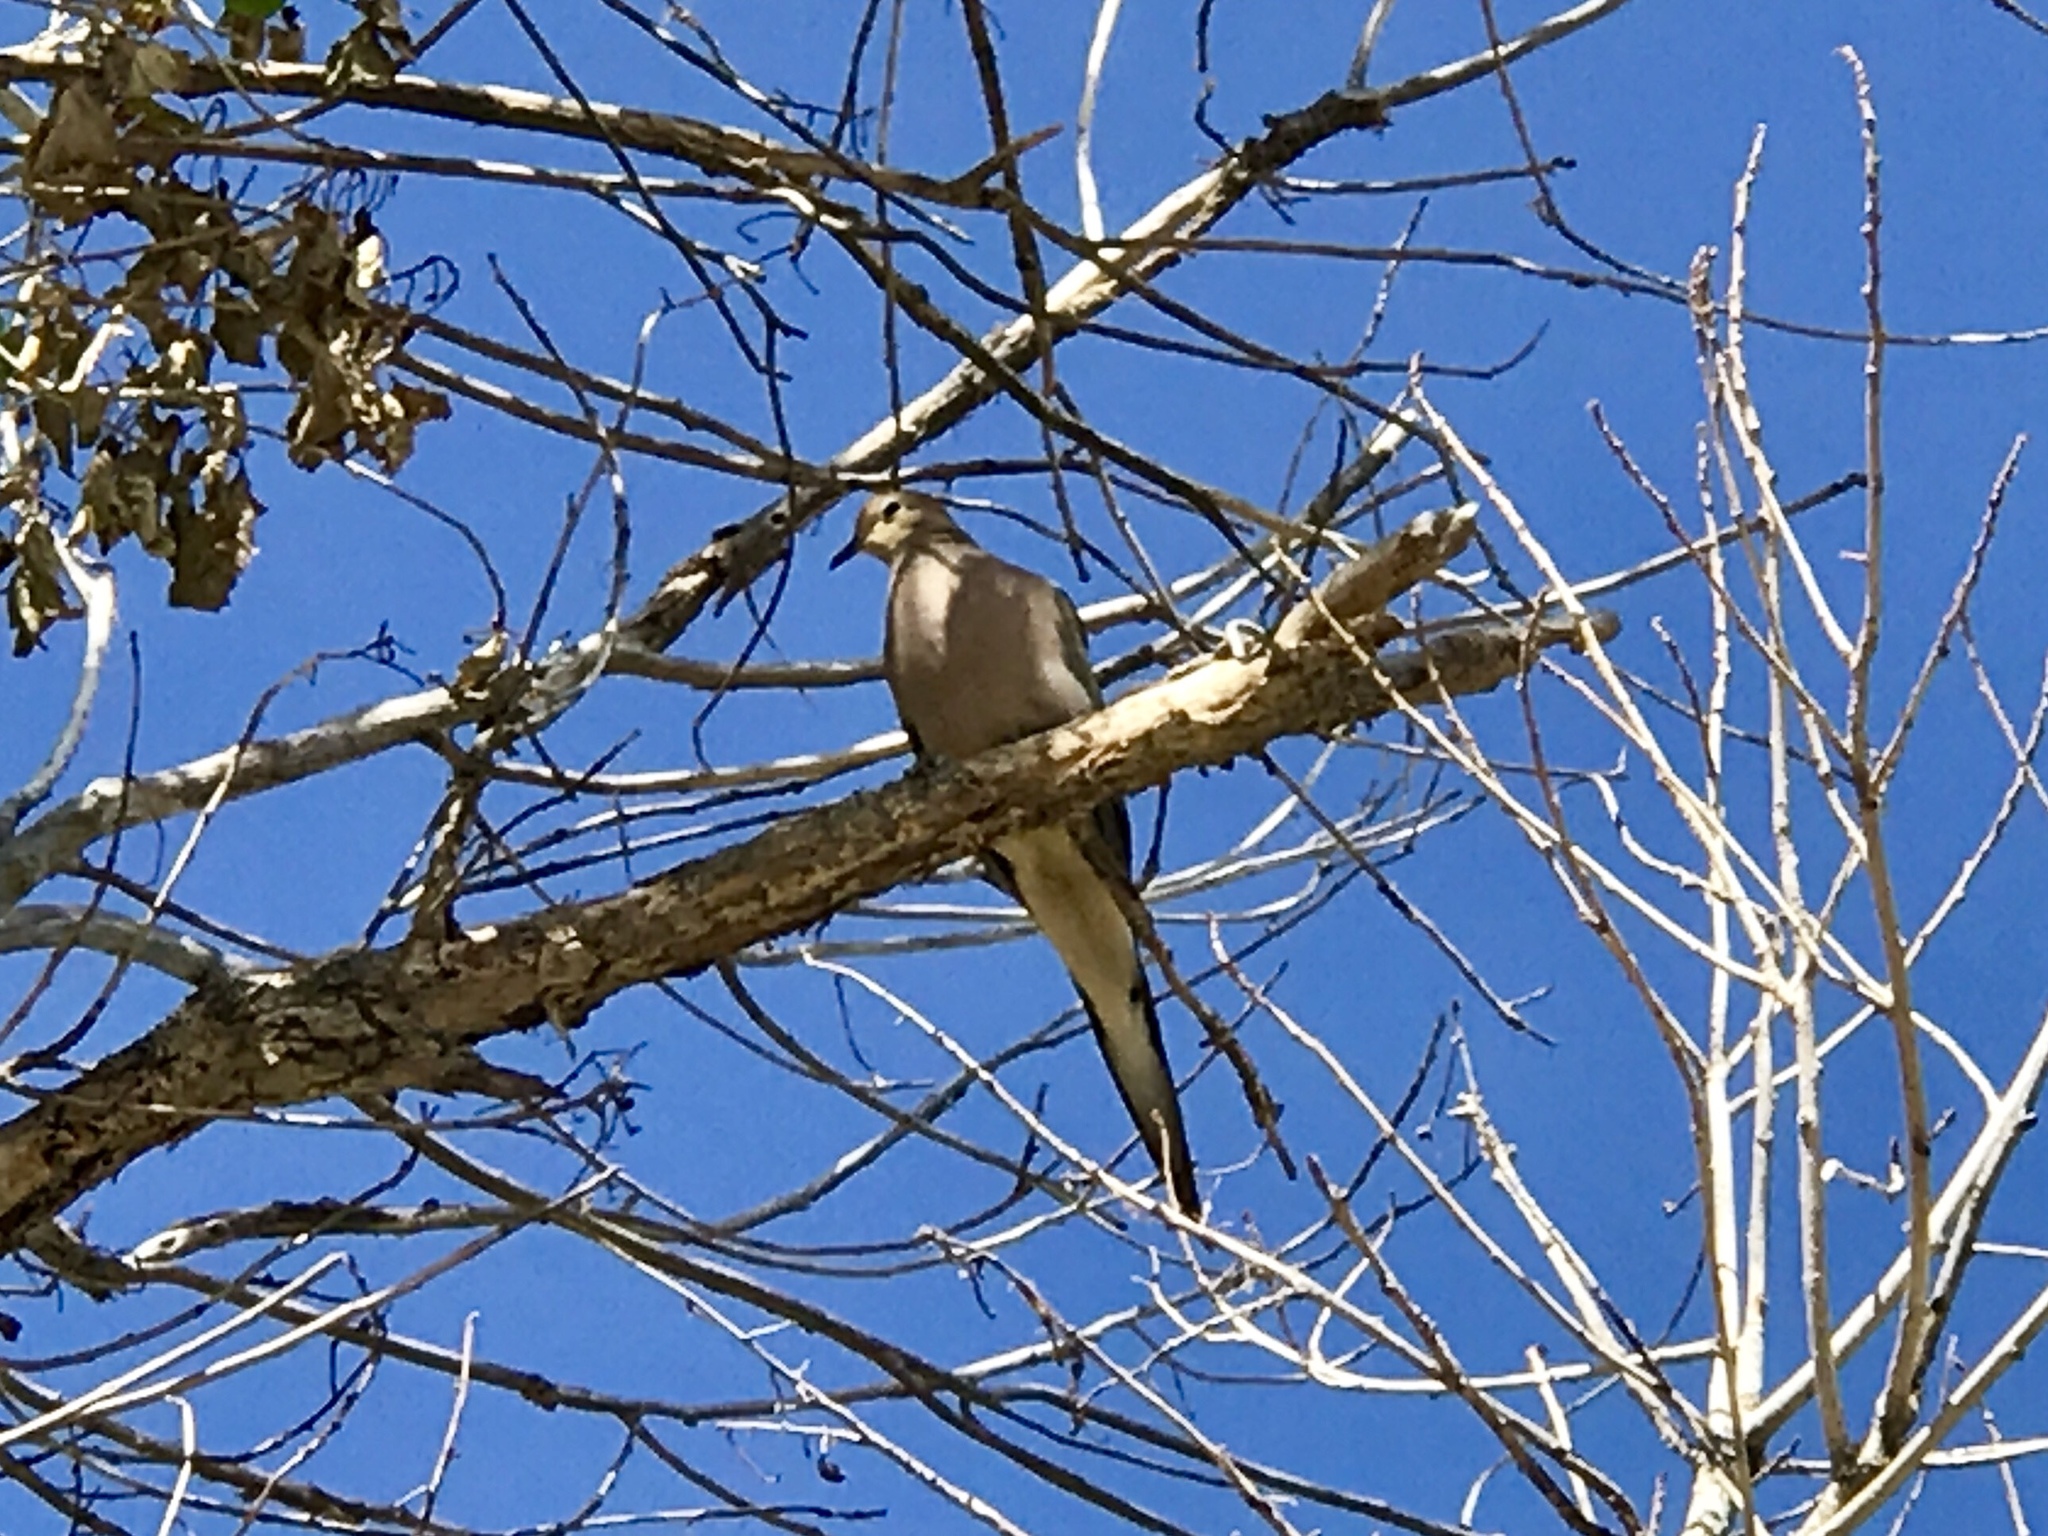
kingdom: Animalia
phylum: Chordata
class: Aves
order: Columbiformes
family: Columbidae
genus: Zenaida
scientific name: Zenaida macroura
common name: Mourning dove
